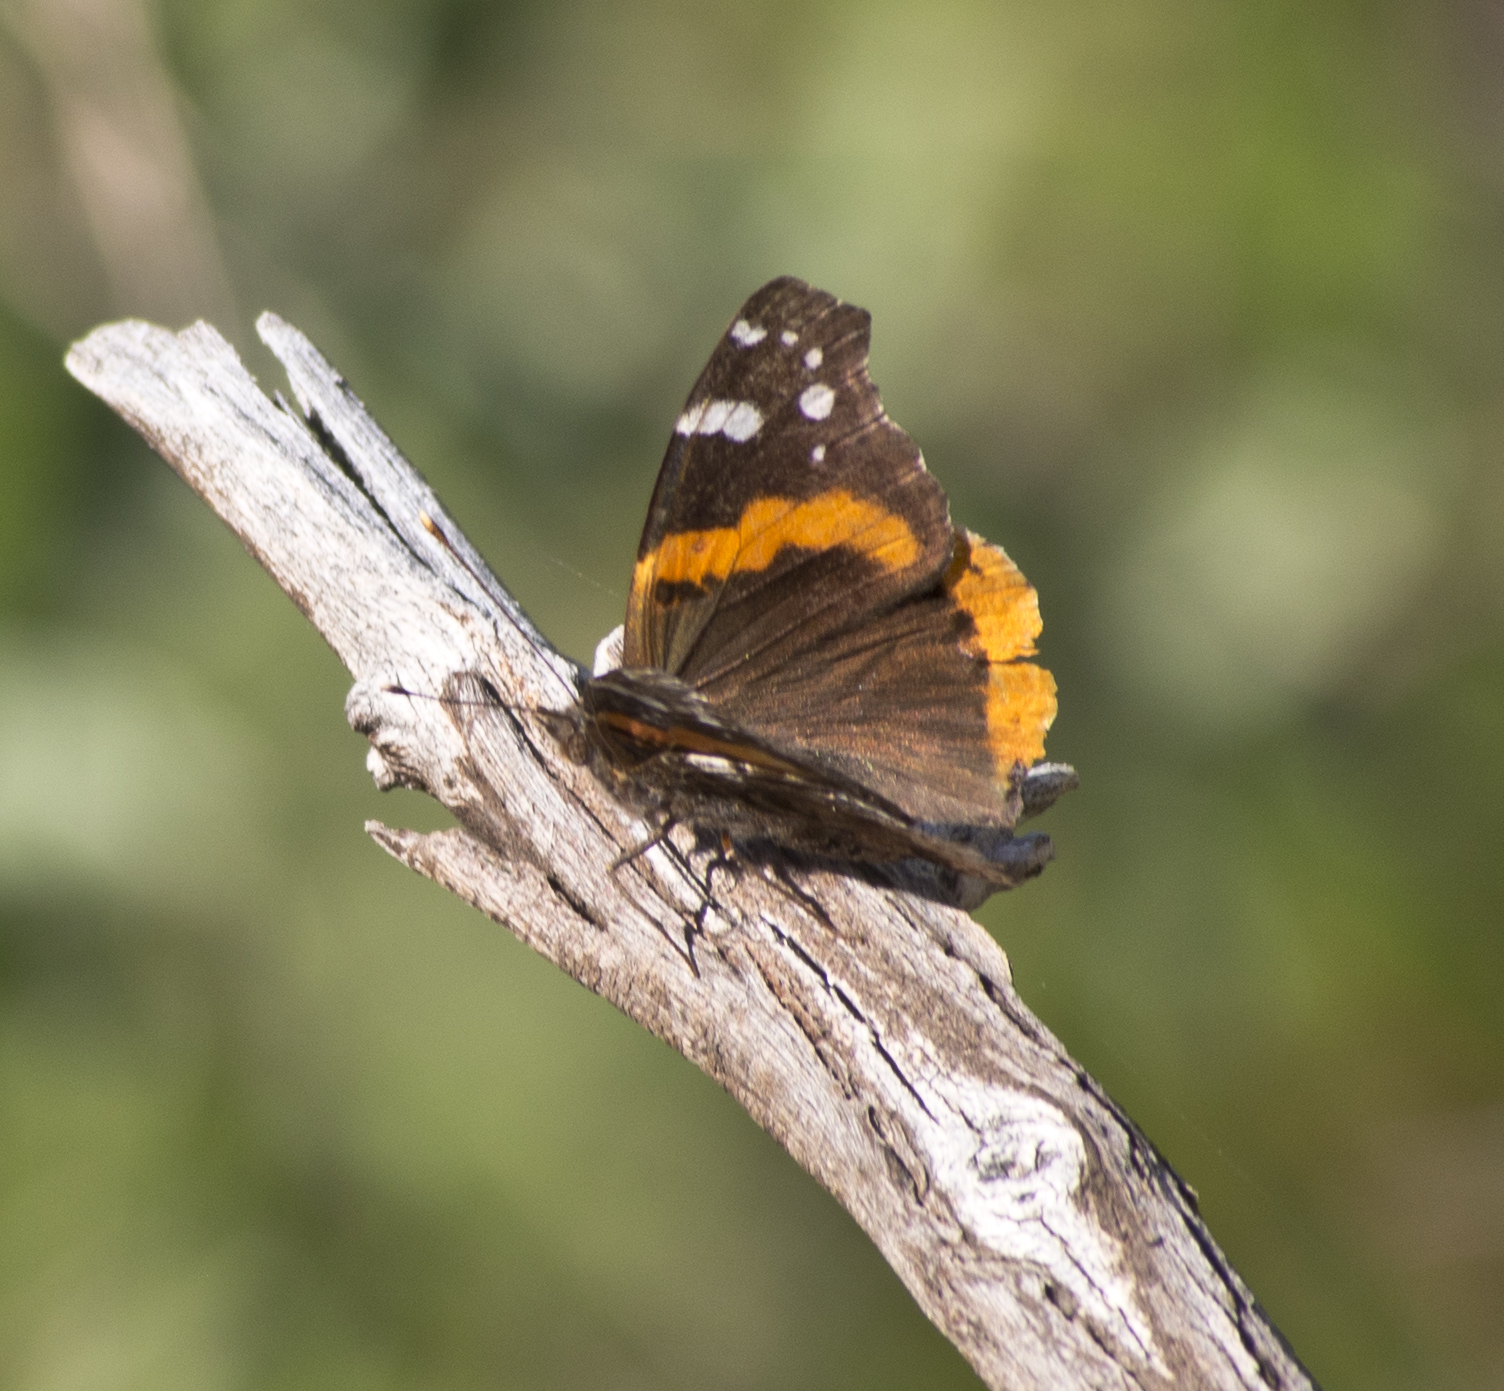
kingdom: Animalia
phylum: Arthropoda
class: Insecta
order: Lepidoptera
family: Nymphalidae
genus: Vanessa
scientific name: Vanessa atalanta
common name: Red admiral
